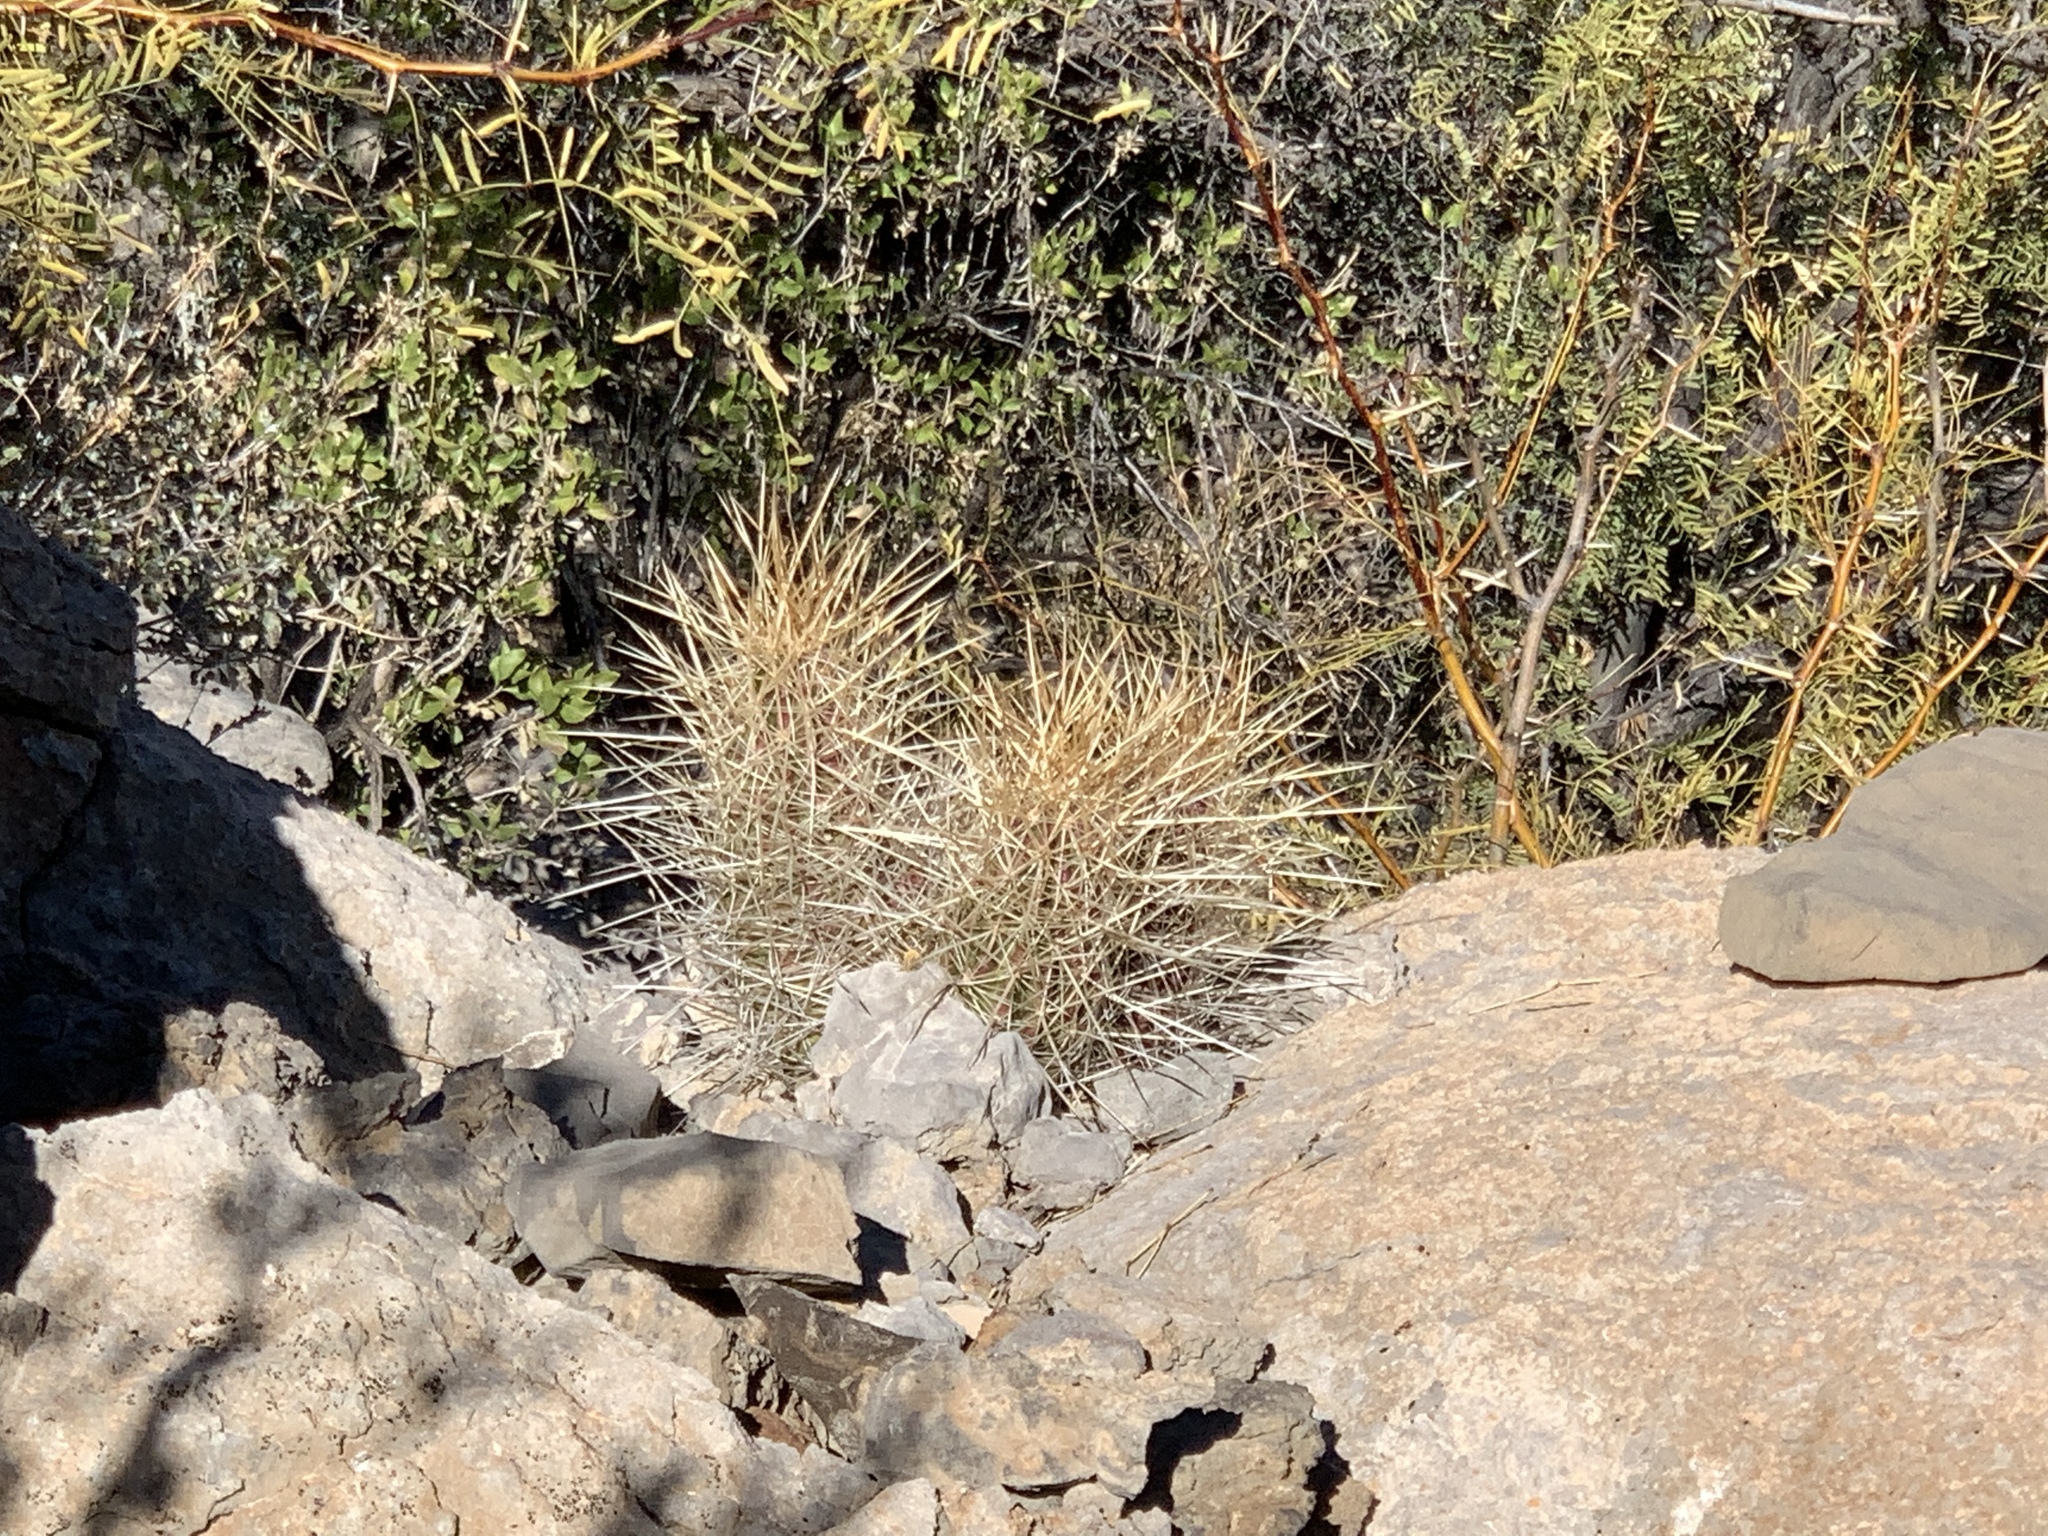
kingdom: Plantae
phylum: Tracheophyta
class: Magnoliopsida
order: Caryophyllales
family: Cactaceae
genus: Echinocereus
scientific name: Echinocereus stramineus
